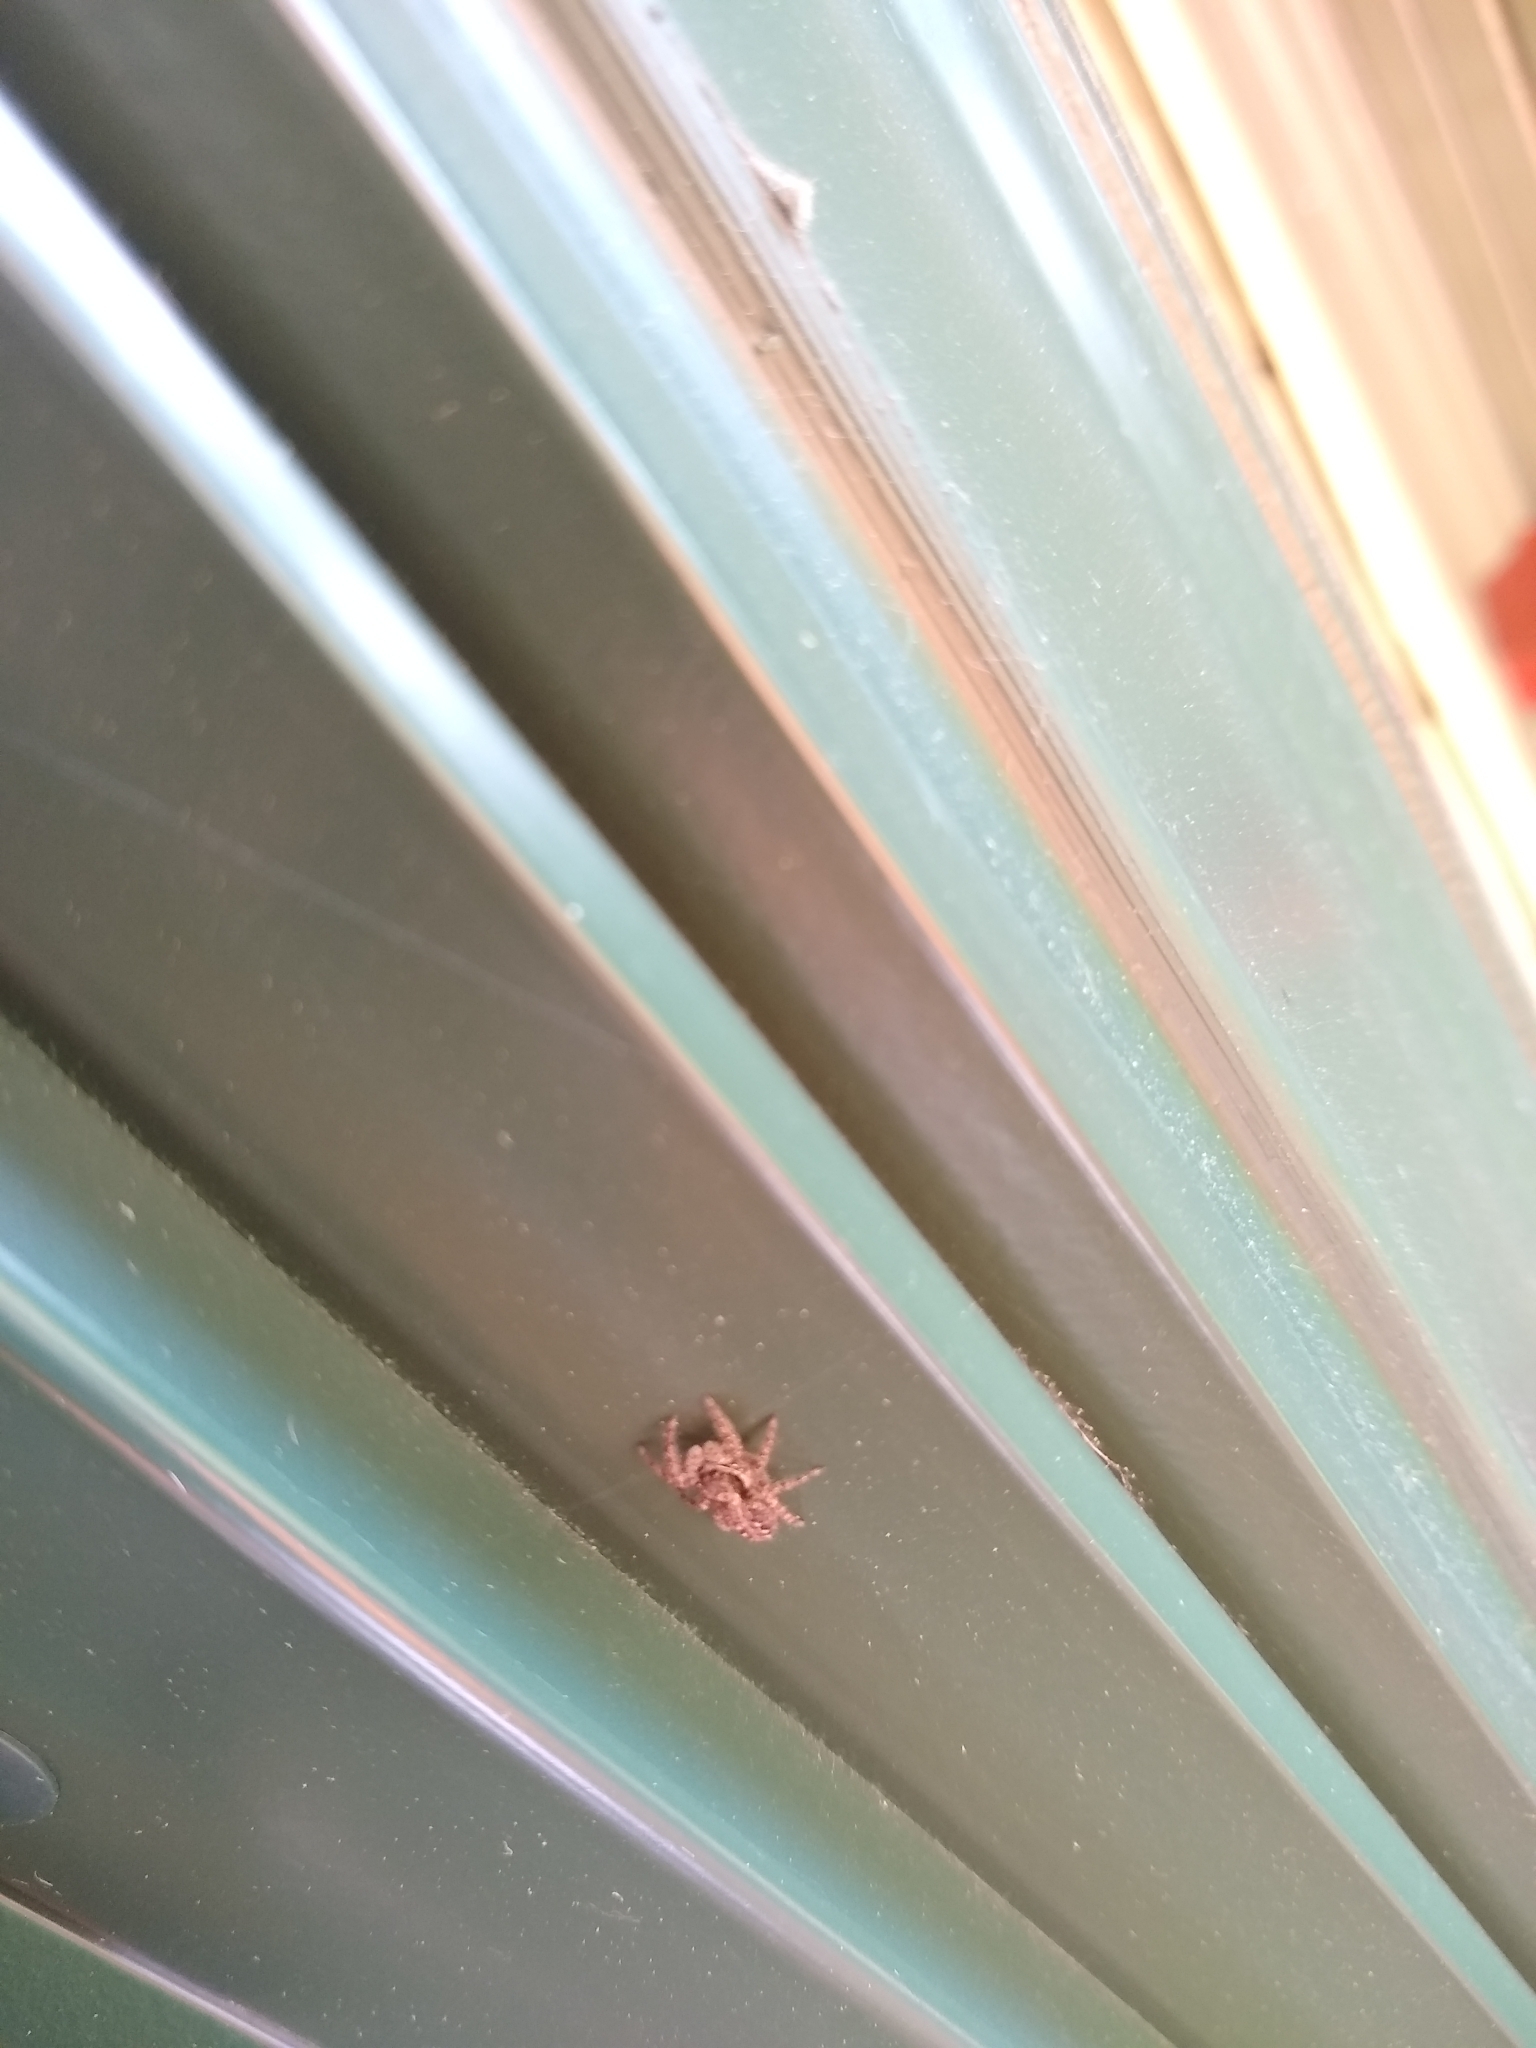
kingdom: Animalia
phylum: Arthropoda
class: Arachnida
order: Araneae
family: Salticidae
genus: Platycryptus
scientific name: Platycryptus californicus
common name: Jumping spiders
